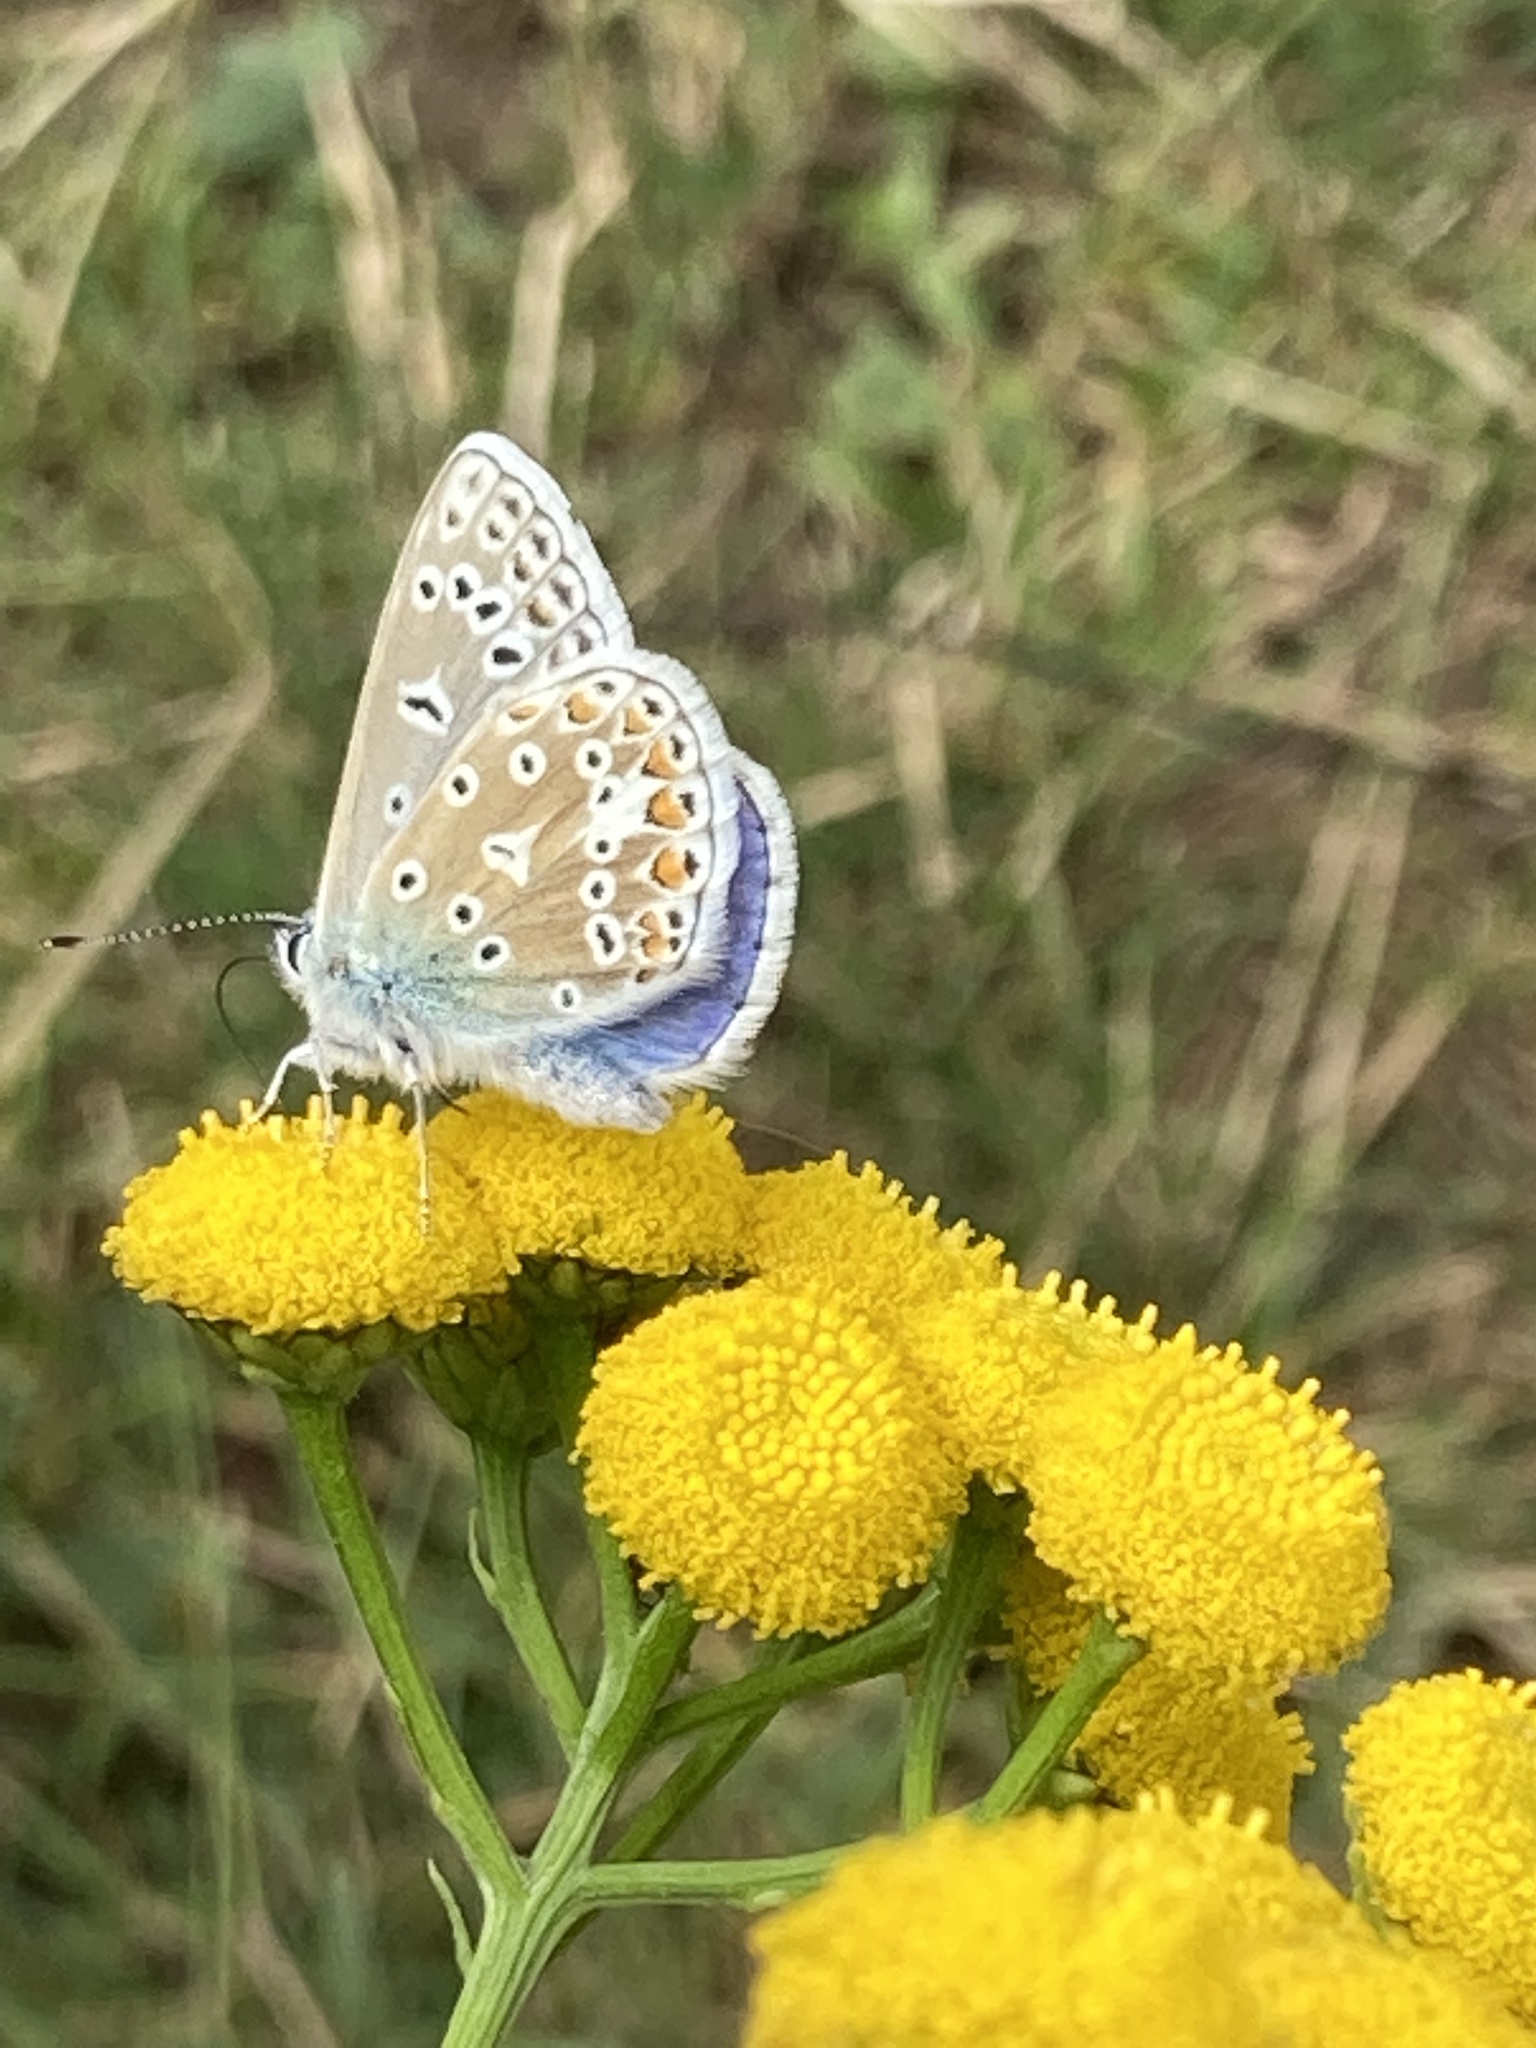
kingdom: Animalia
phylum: Arthropoda
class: Insecta
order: Lepidoptera
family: Lycaenidae
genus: Polyommatus
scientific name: Polyommatus icarus
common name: Common blue
